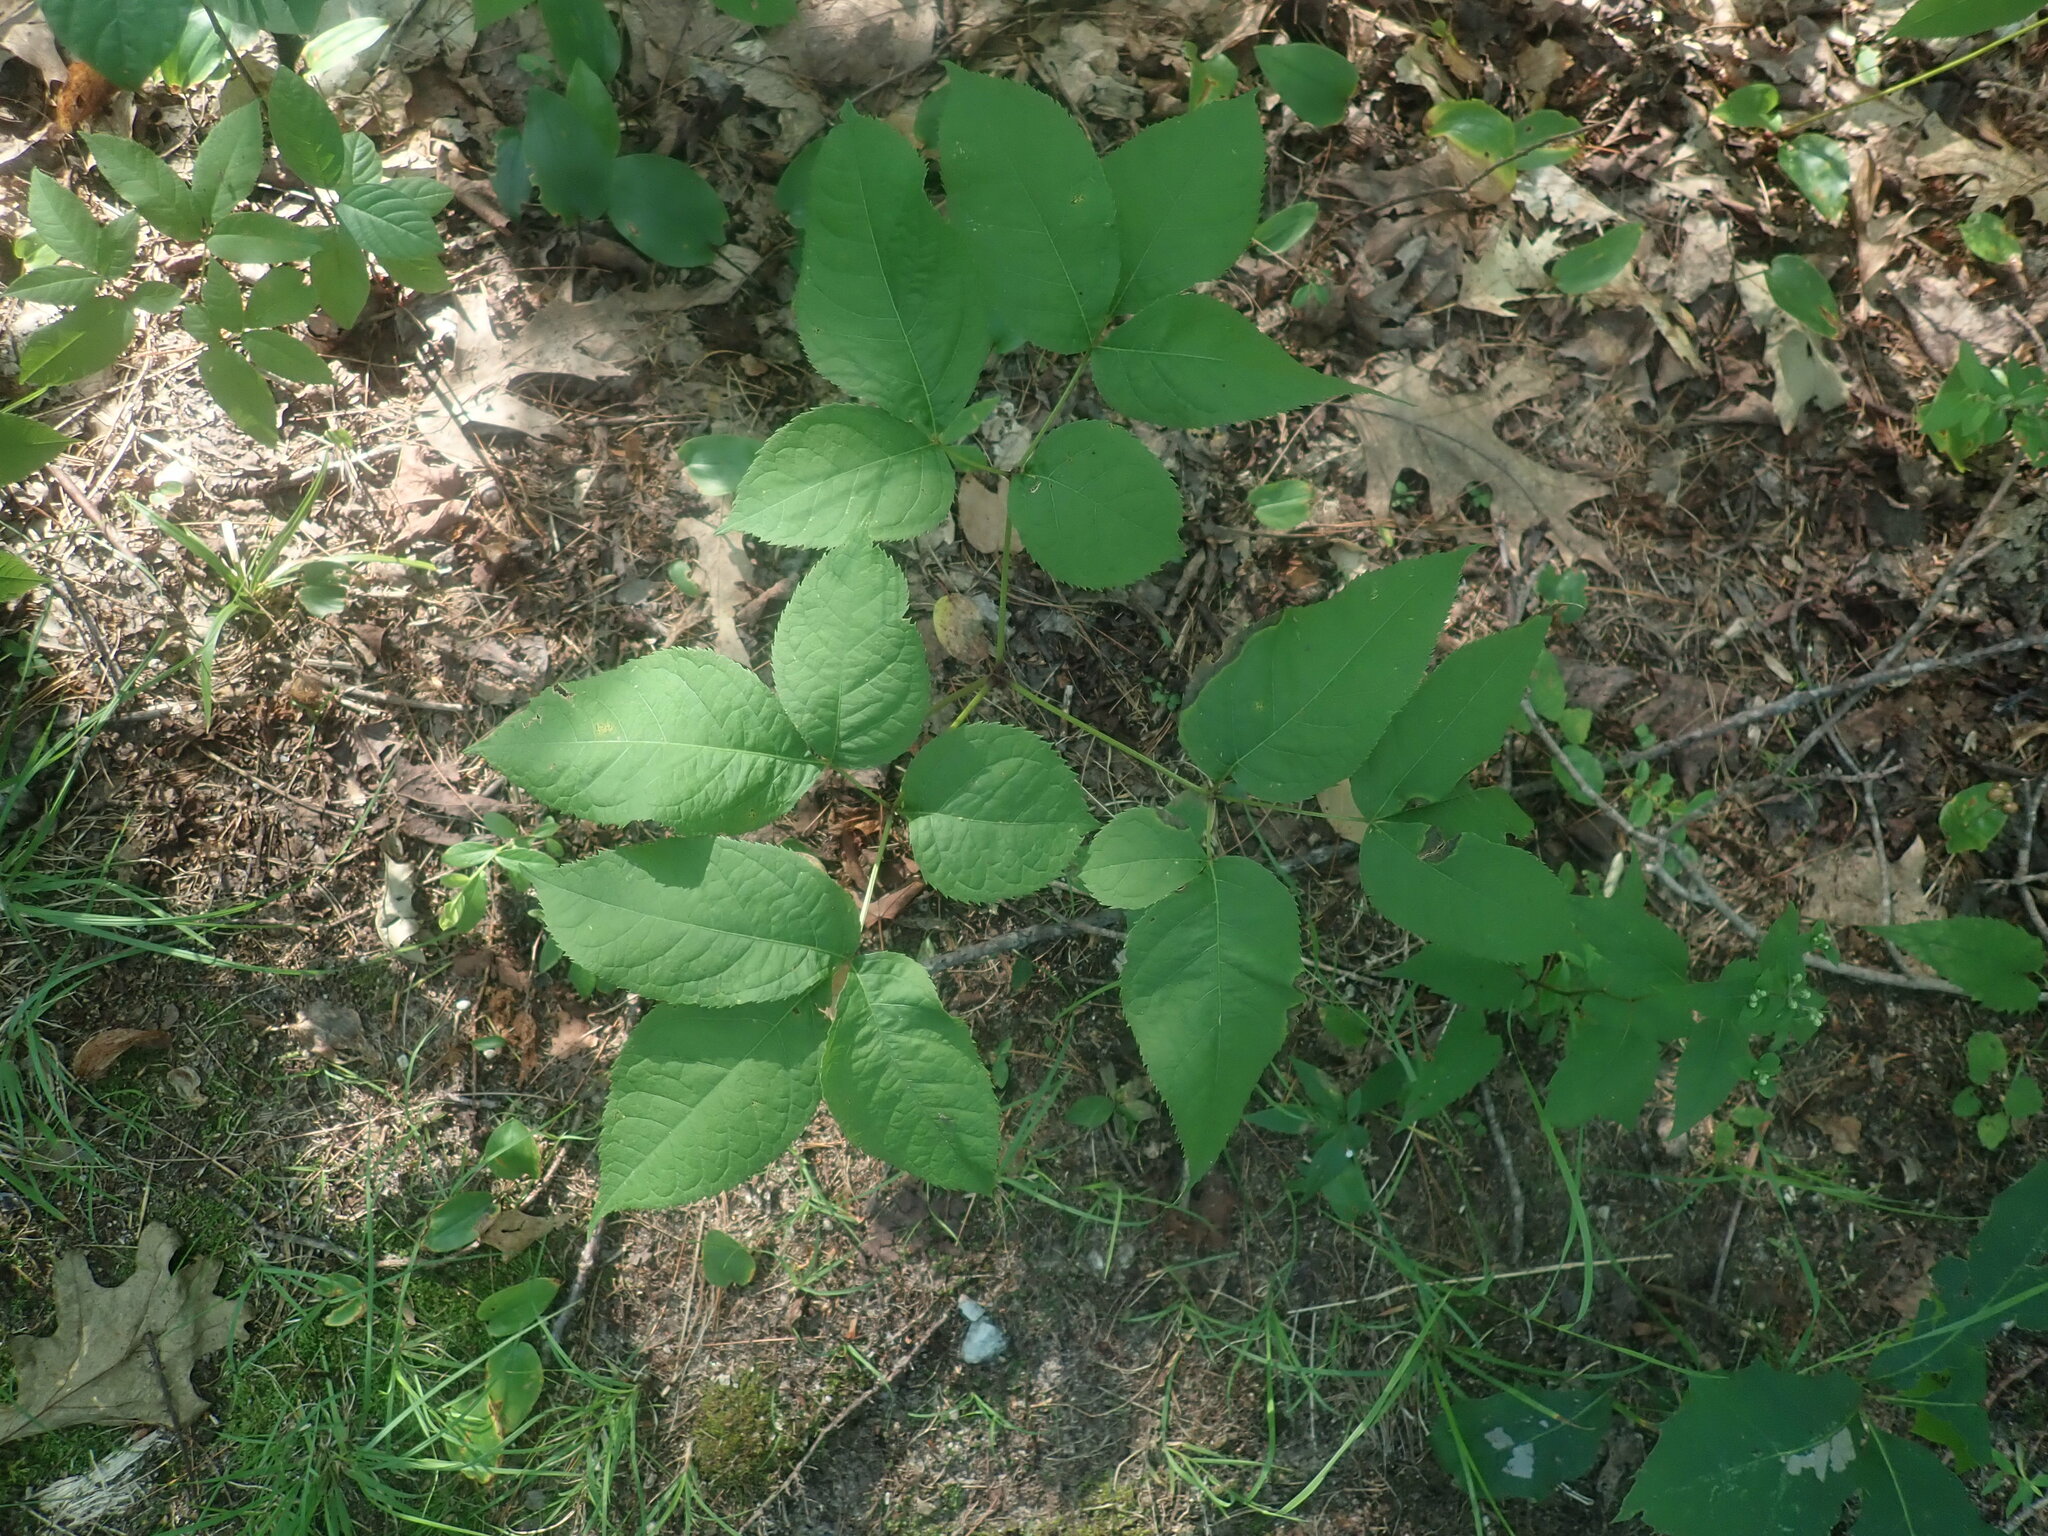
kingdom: Plantae
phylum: Tracheophyta
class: Magnoliopsida
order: Apiales
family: Araliaceae
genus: Aralia
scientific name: Aralia nudicaulis
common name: Wild sarsaparilla
